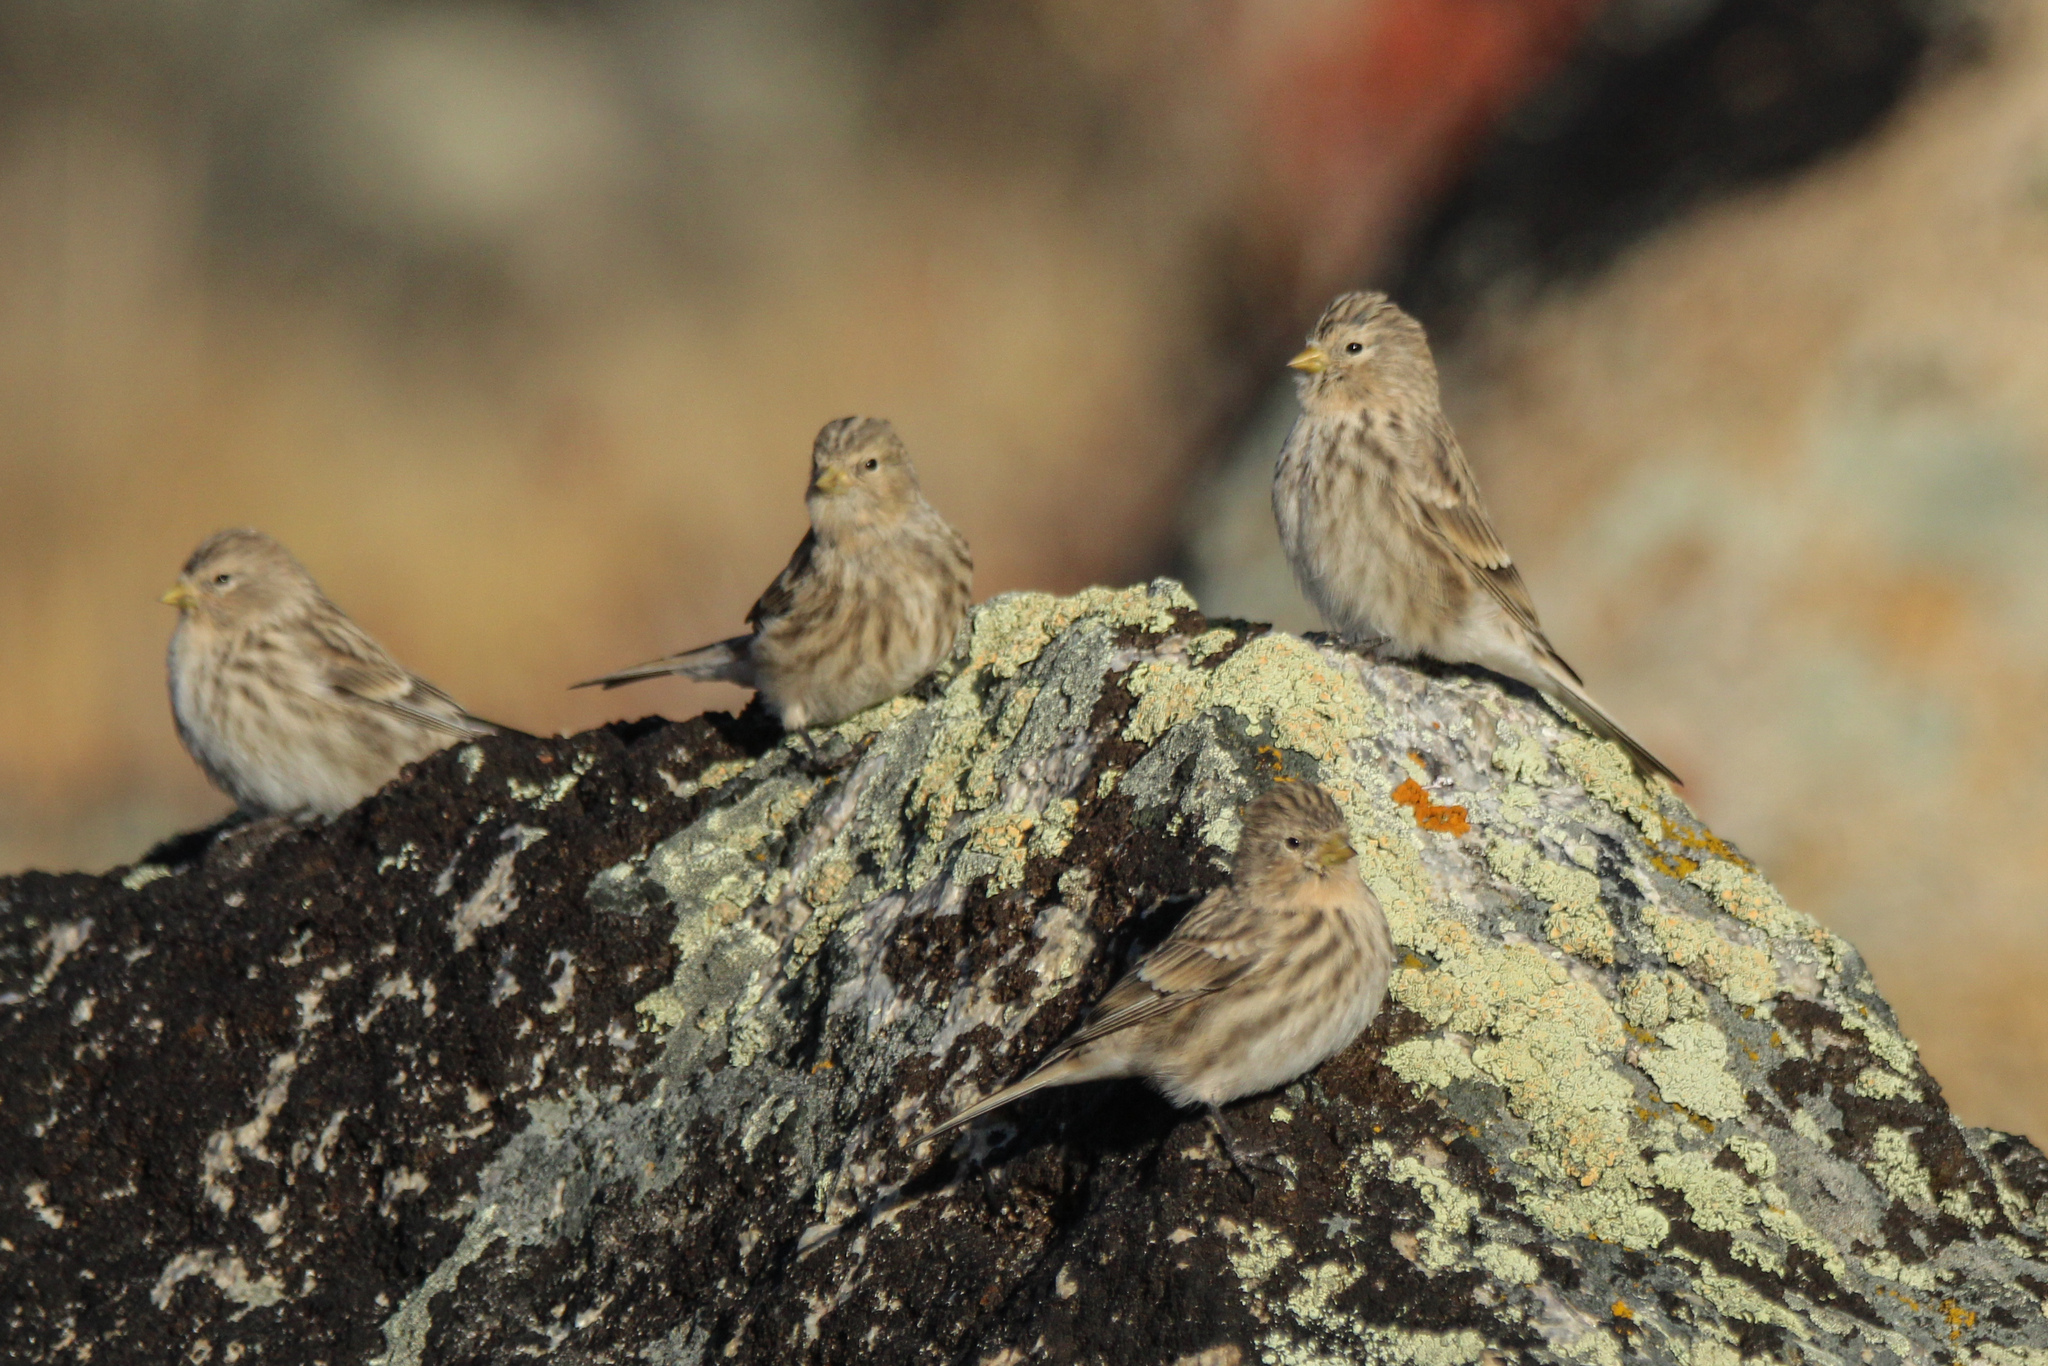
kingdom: Animalia
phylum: Chordata
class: Aves
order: Passeriformes
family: Fringillidae
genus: Linaria
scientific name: Linaria flavirostris
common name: Twite
